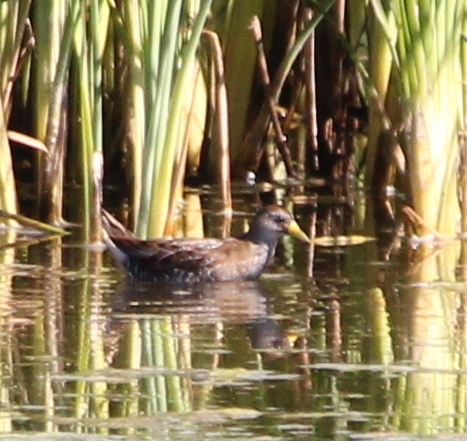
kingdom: Animalia
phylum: Chordata
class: Aves
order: Gruiformes
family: Rallidae
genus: Porzana
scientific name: Porzana carolina
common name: Sora
